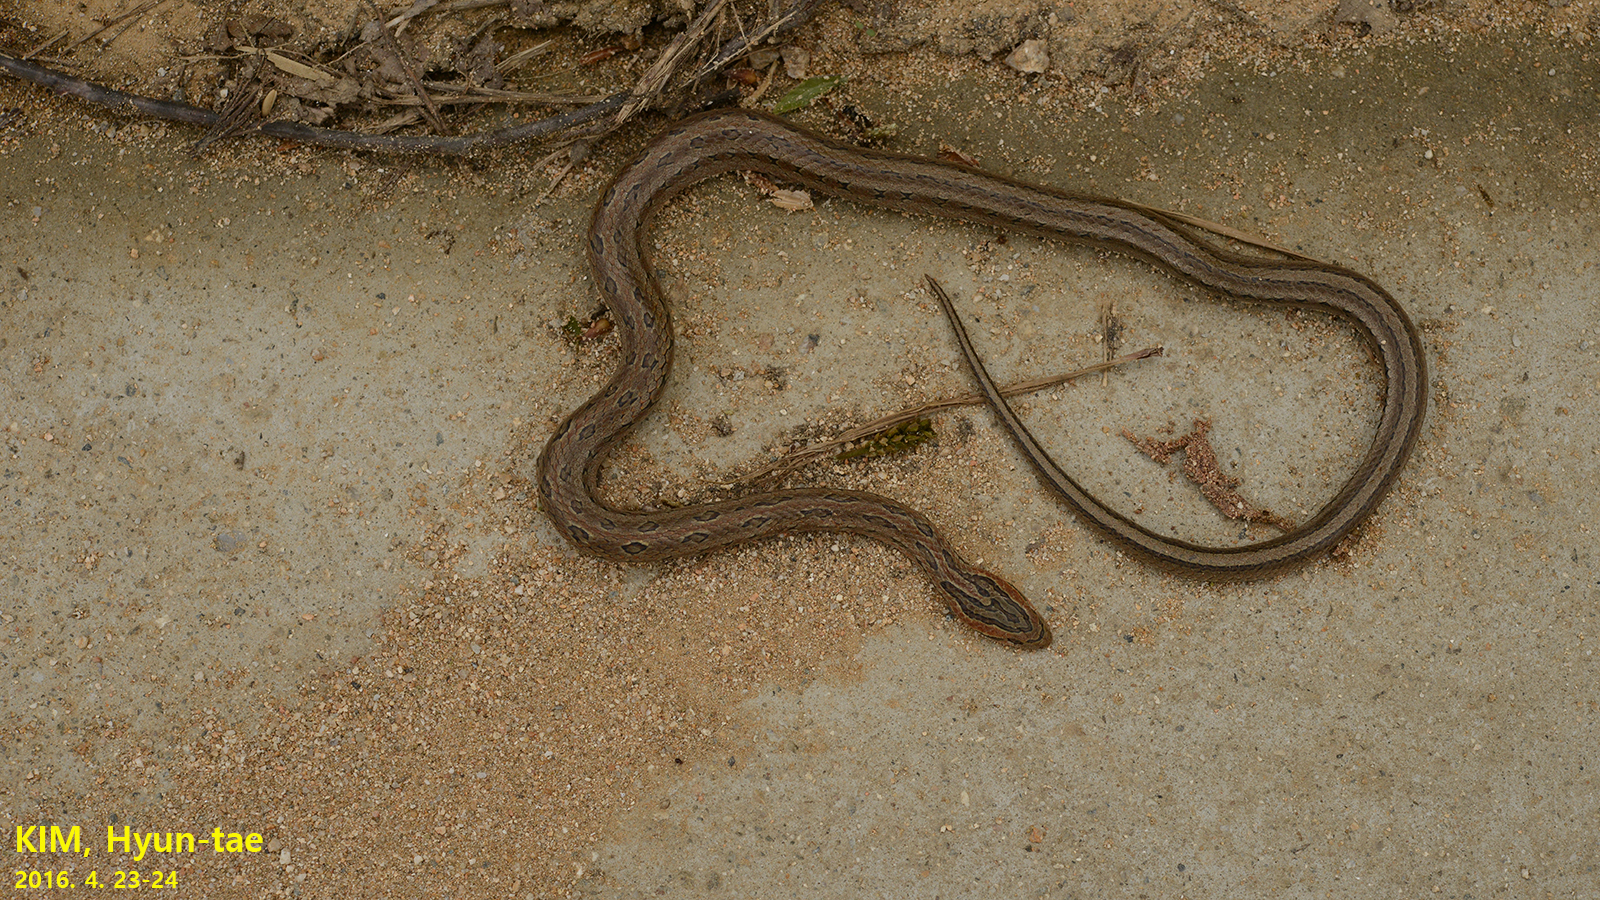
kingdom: Animalia
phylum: Chordata
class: Squamata
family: Colubridae
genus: Oocatochus
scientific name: Oocatochus rufodorsatus
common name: Frog-eating rat snake
